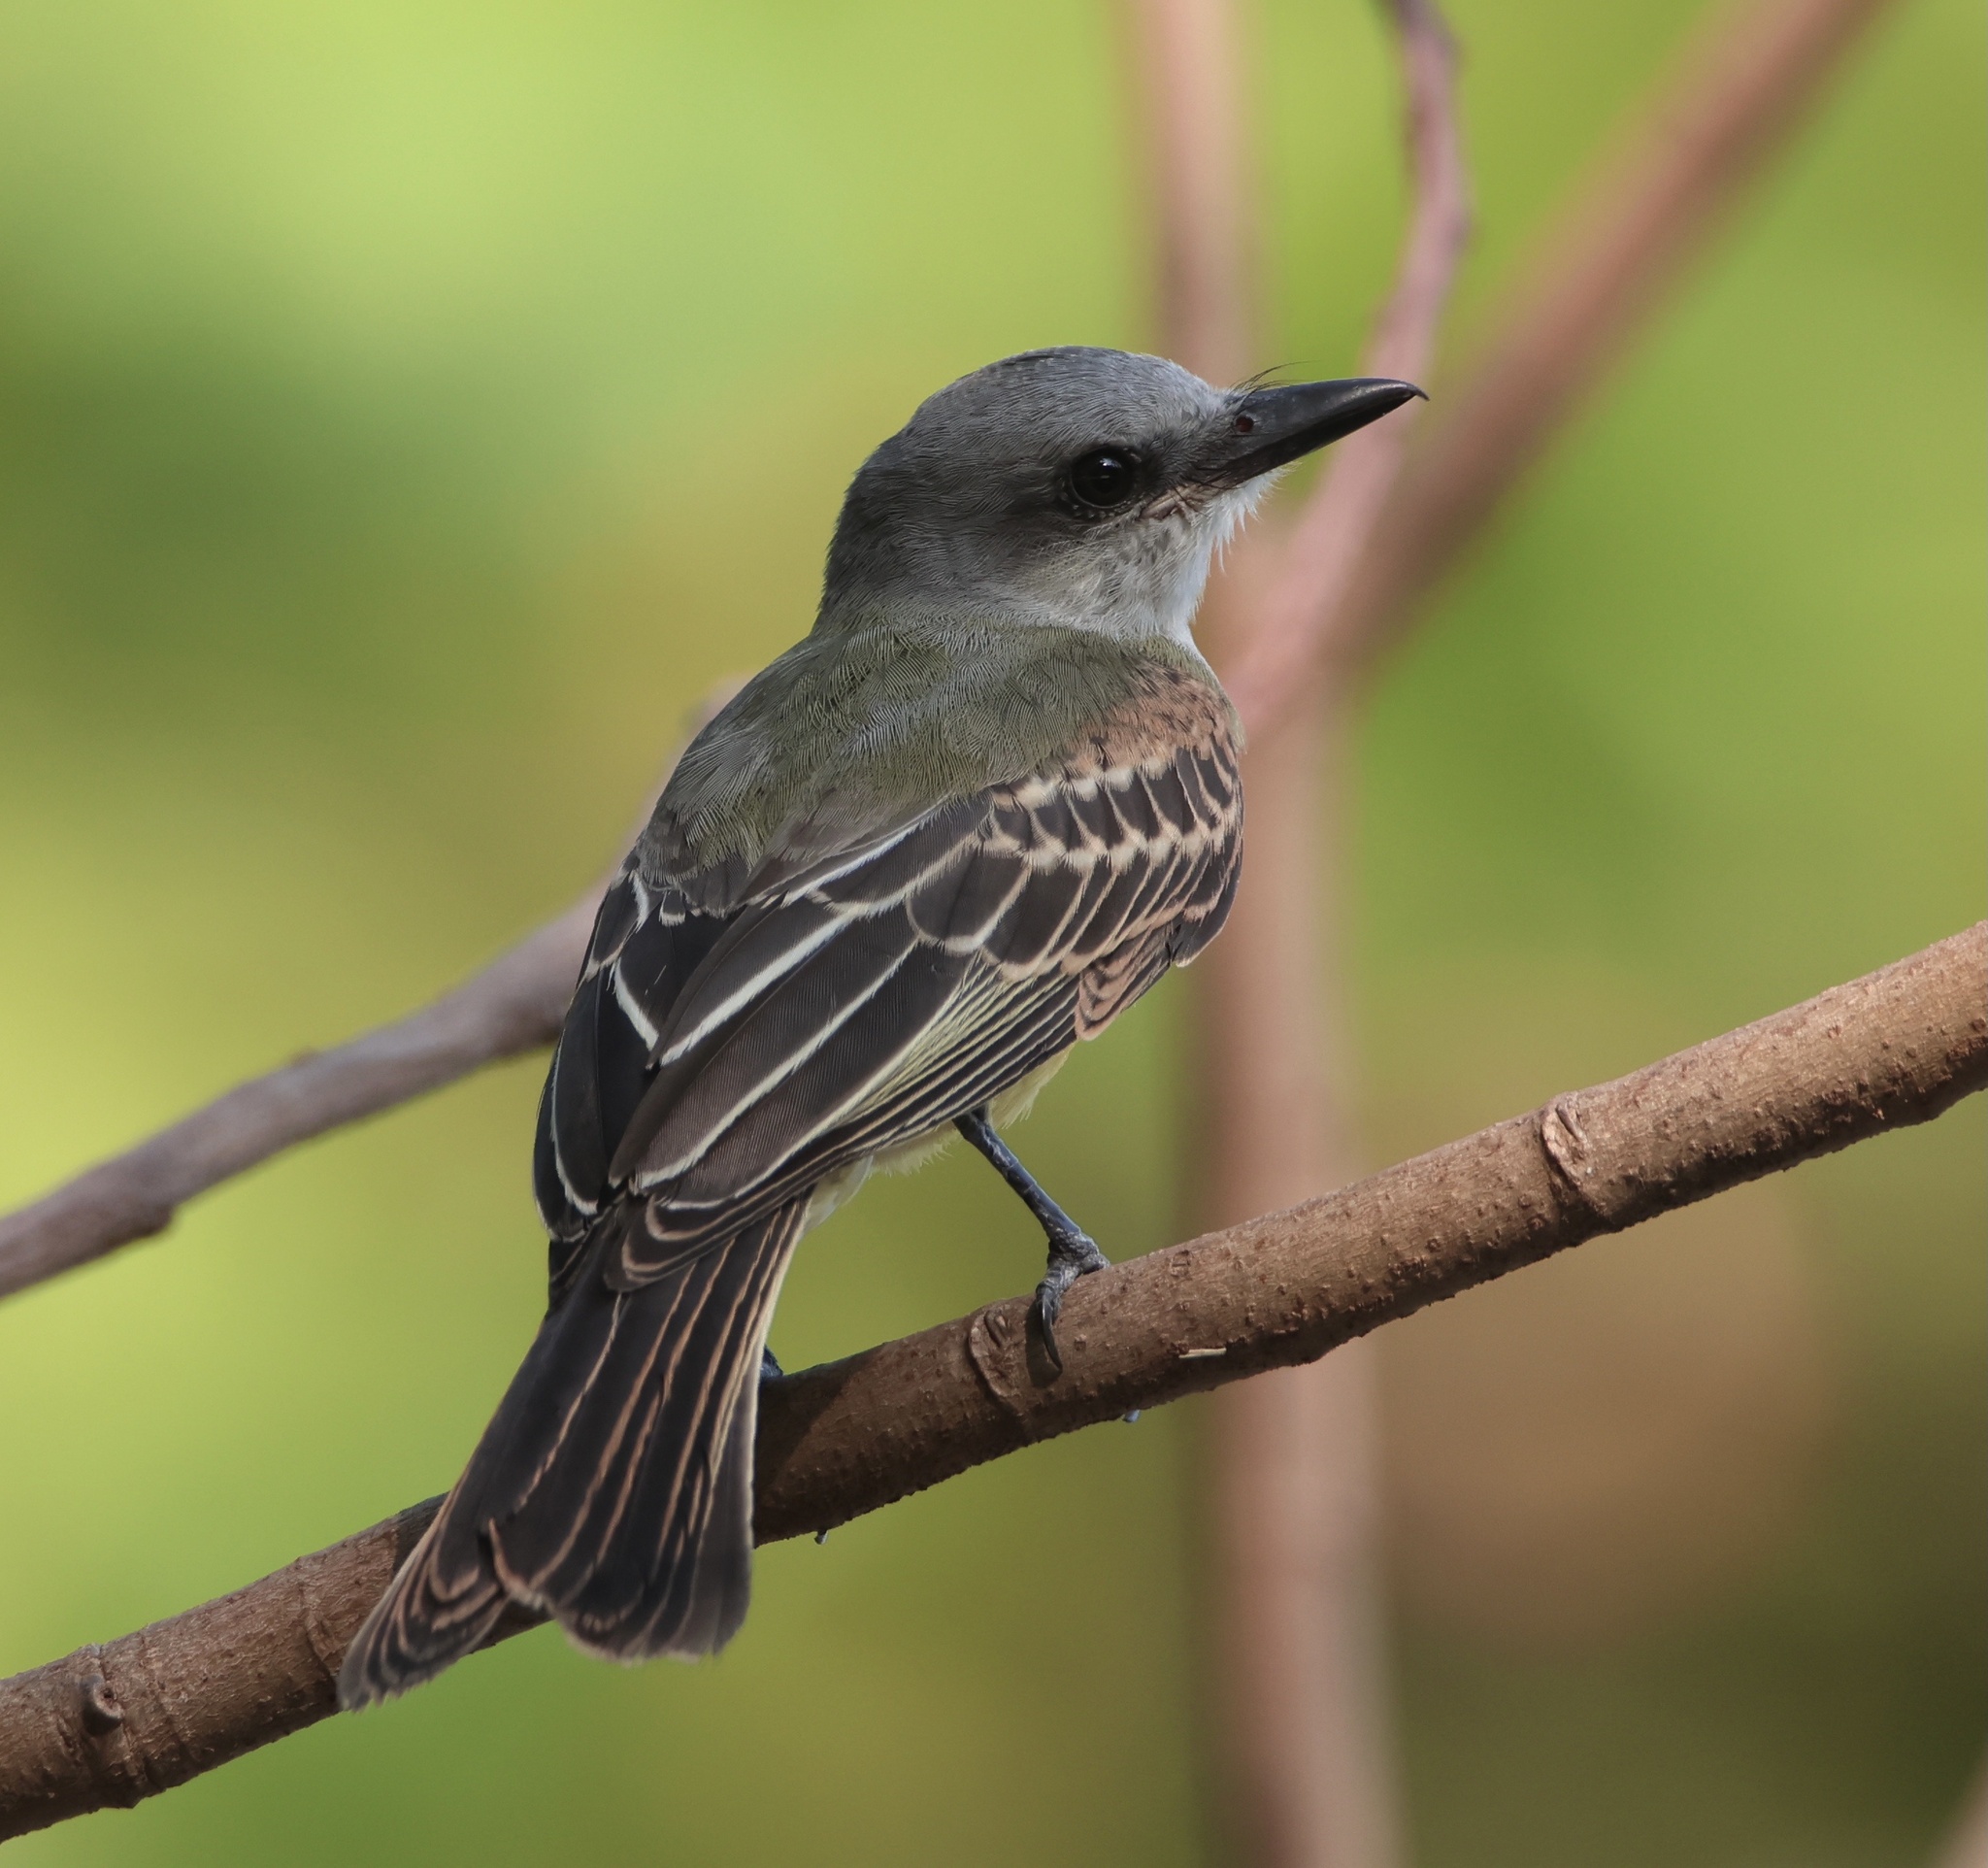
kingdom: Animalia
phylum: Chordata
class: Aves
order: Passeriformes
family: Tyrannidae
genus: Tyrannus
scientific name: Tyrannus melancholicus
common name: Tropical kingbird
